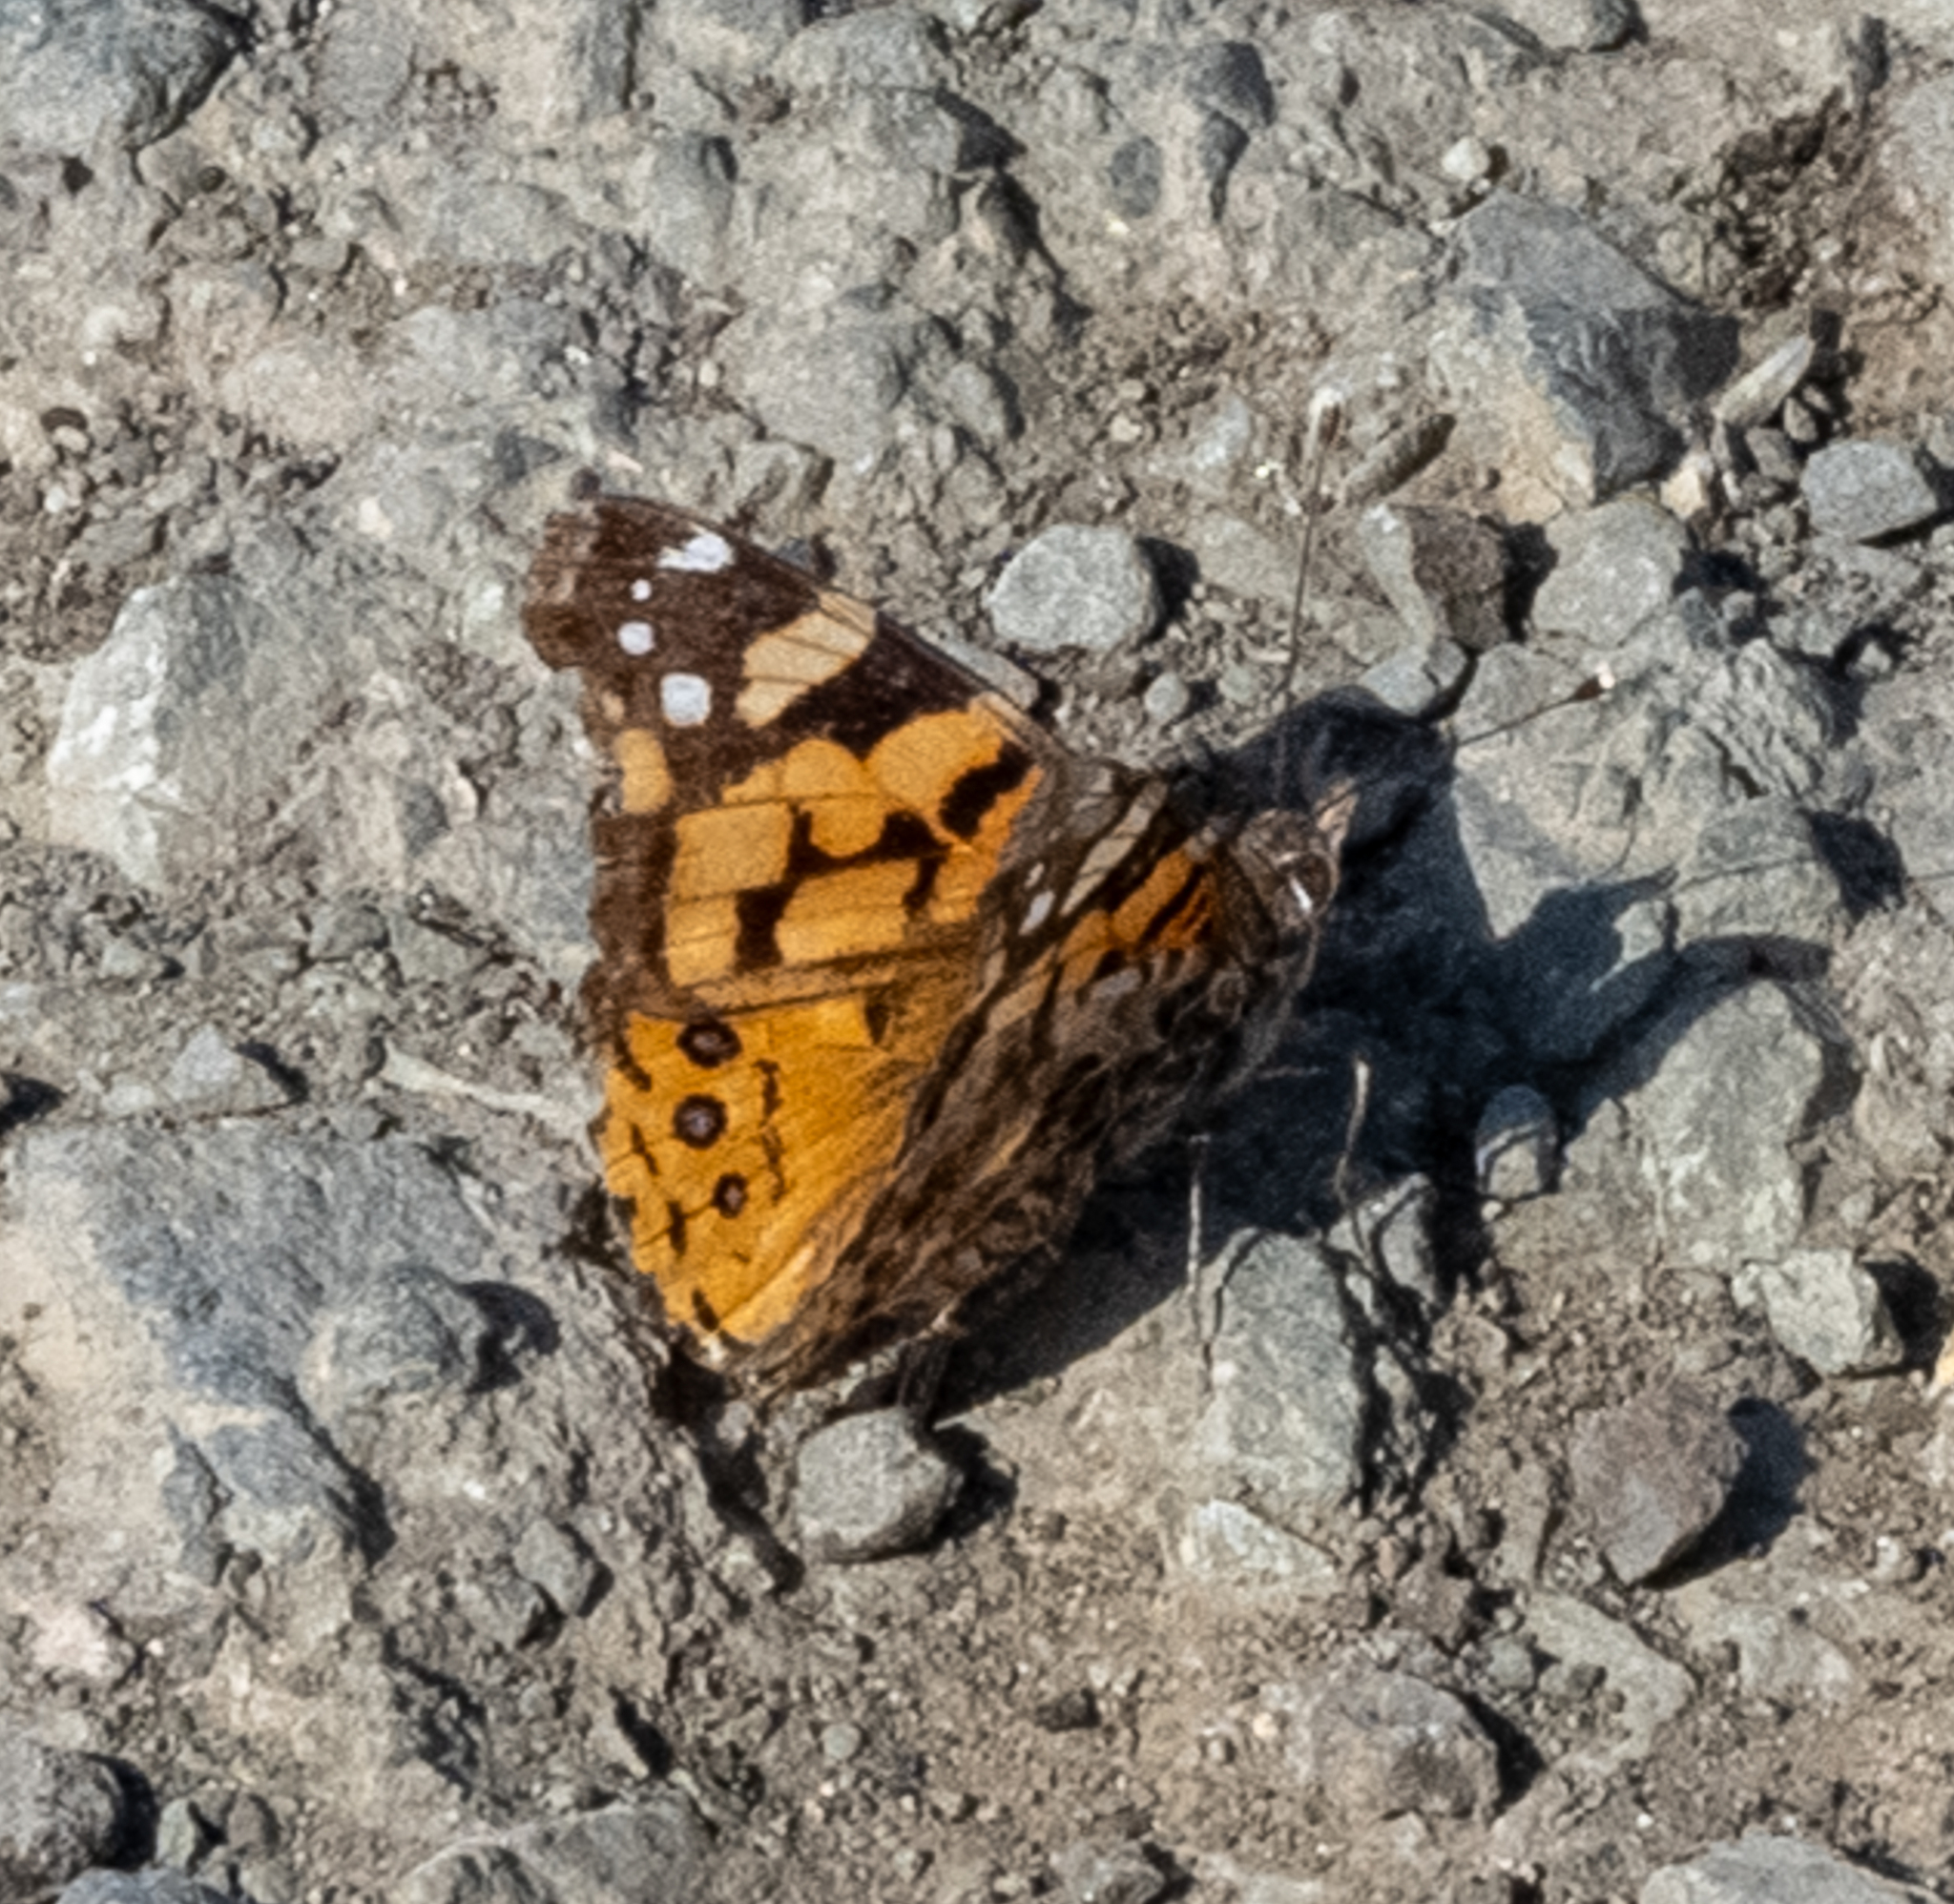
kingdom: Animalia
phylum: Arthropoda
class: Insecta
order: Lepidoptera
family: Nymphalidae
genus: Vanessa
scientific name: Vanessa annabella
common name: West coast lady
